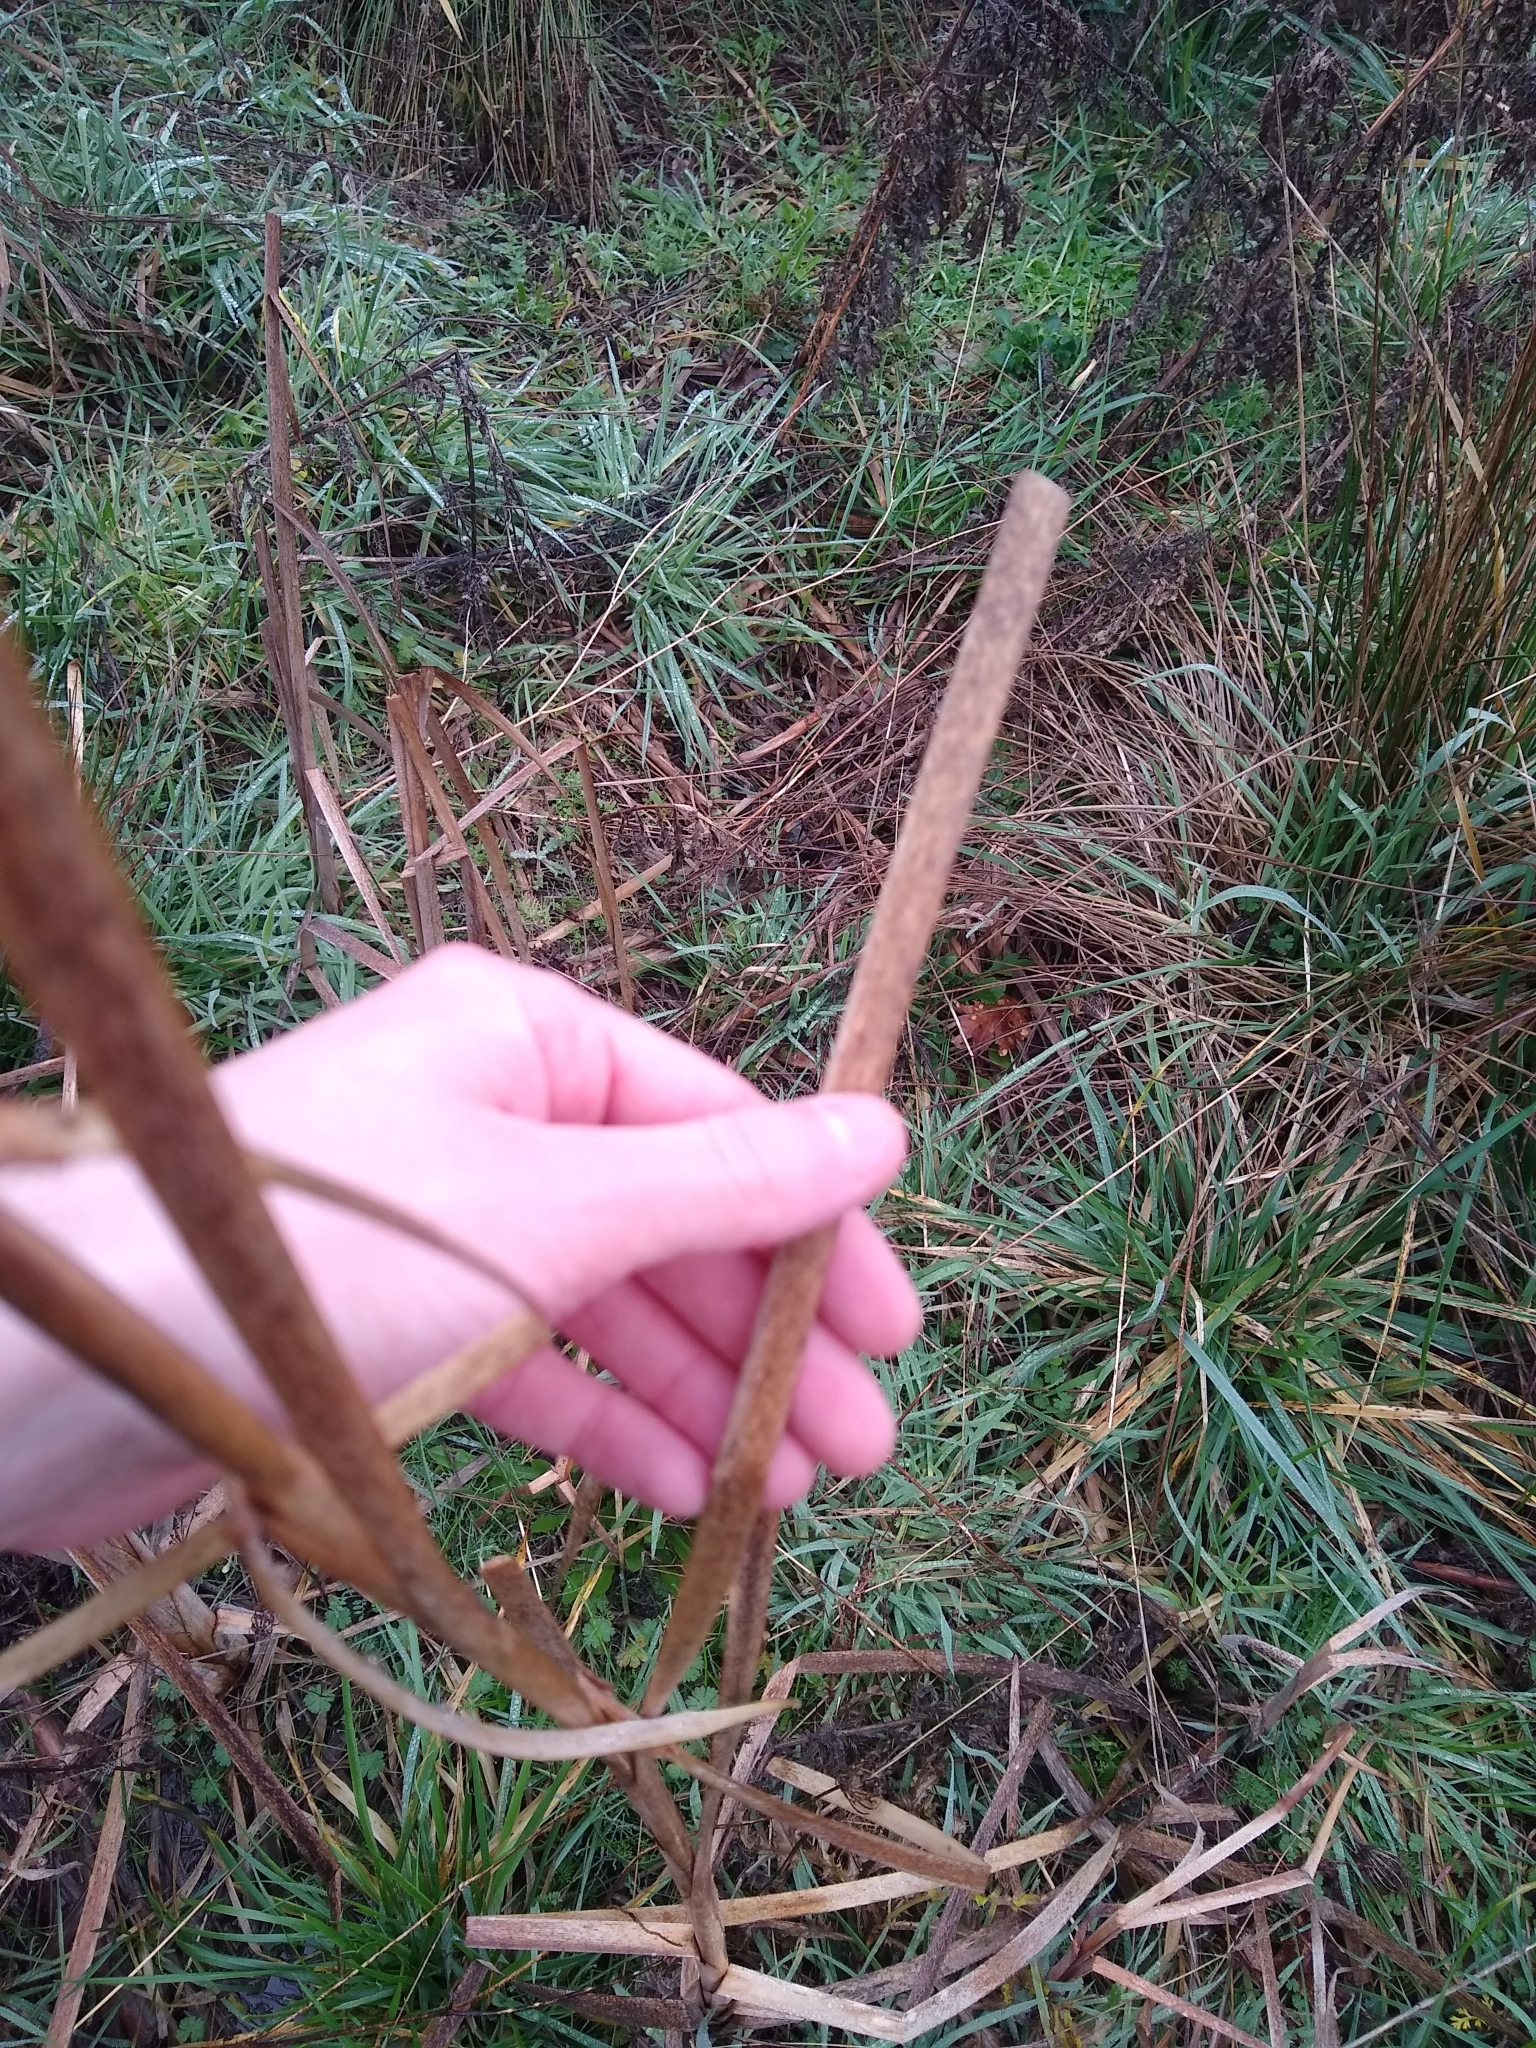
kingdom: Plantae
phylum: Tracheophyta
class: Liliopsida
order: Poales
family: Typhaceae
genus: Typha
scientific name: Typha latifolia
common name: Broadleaf cattail
